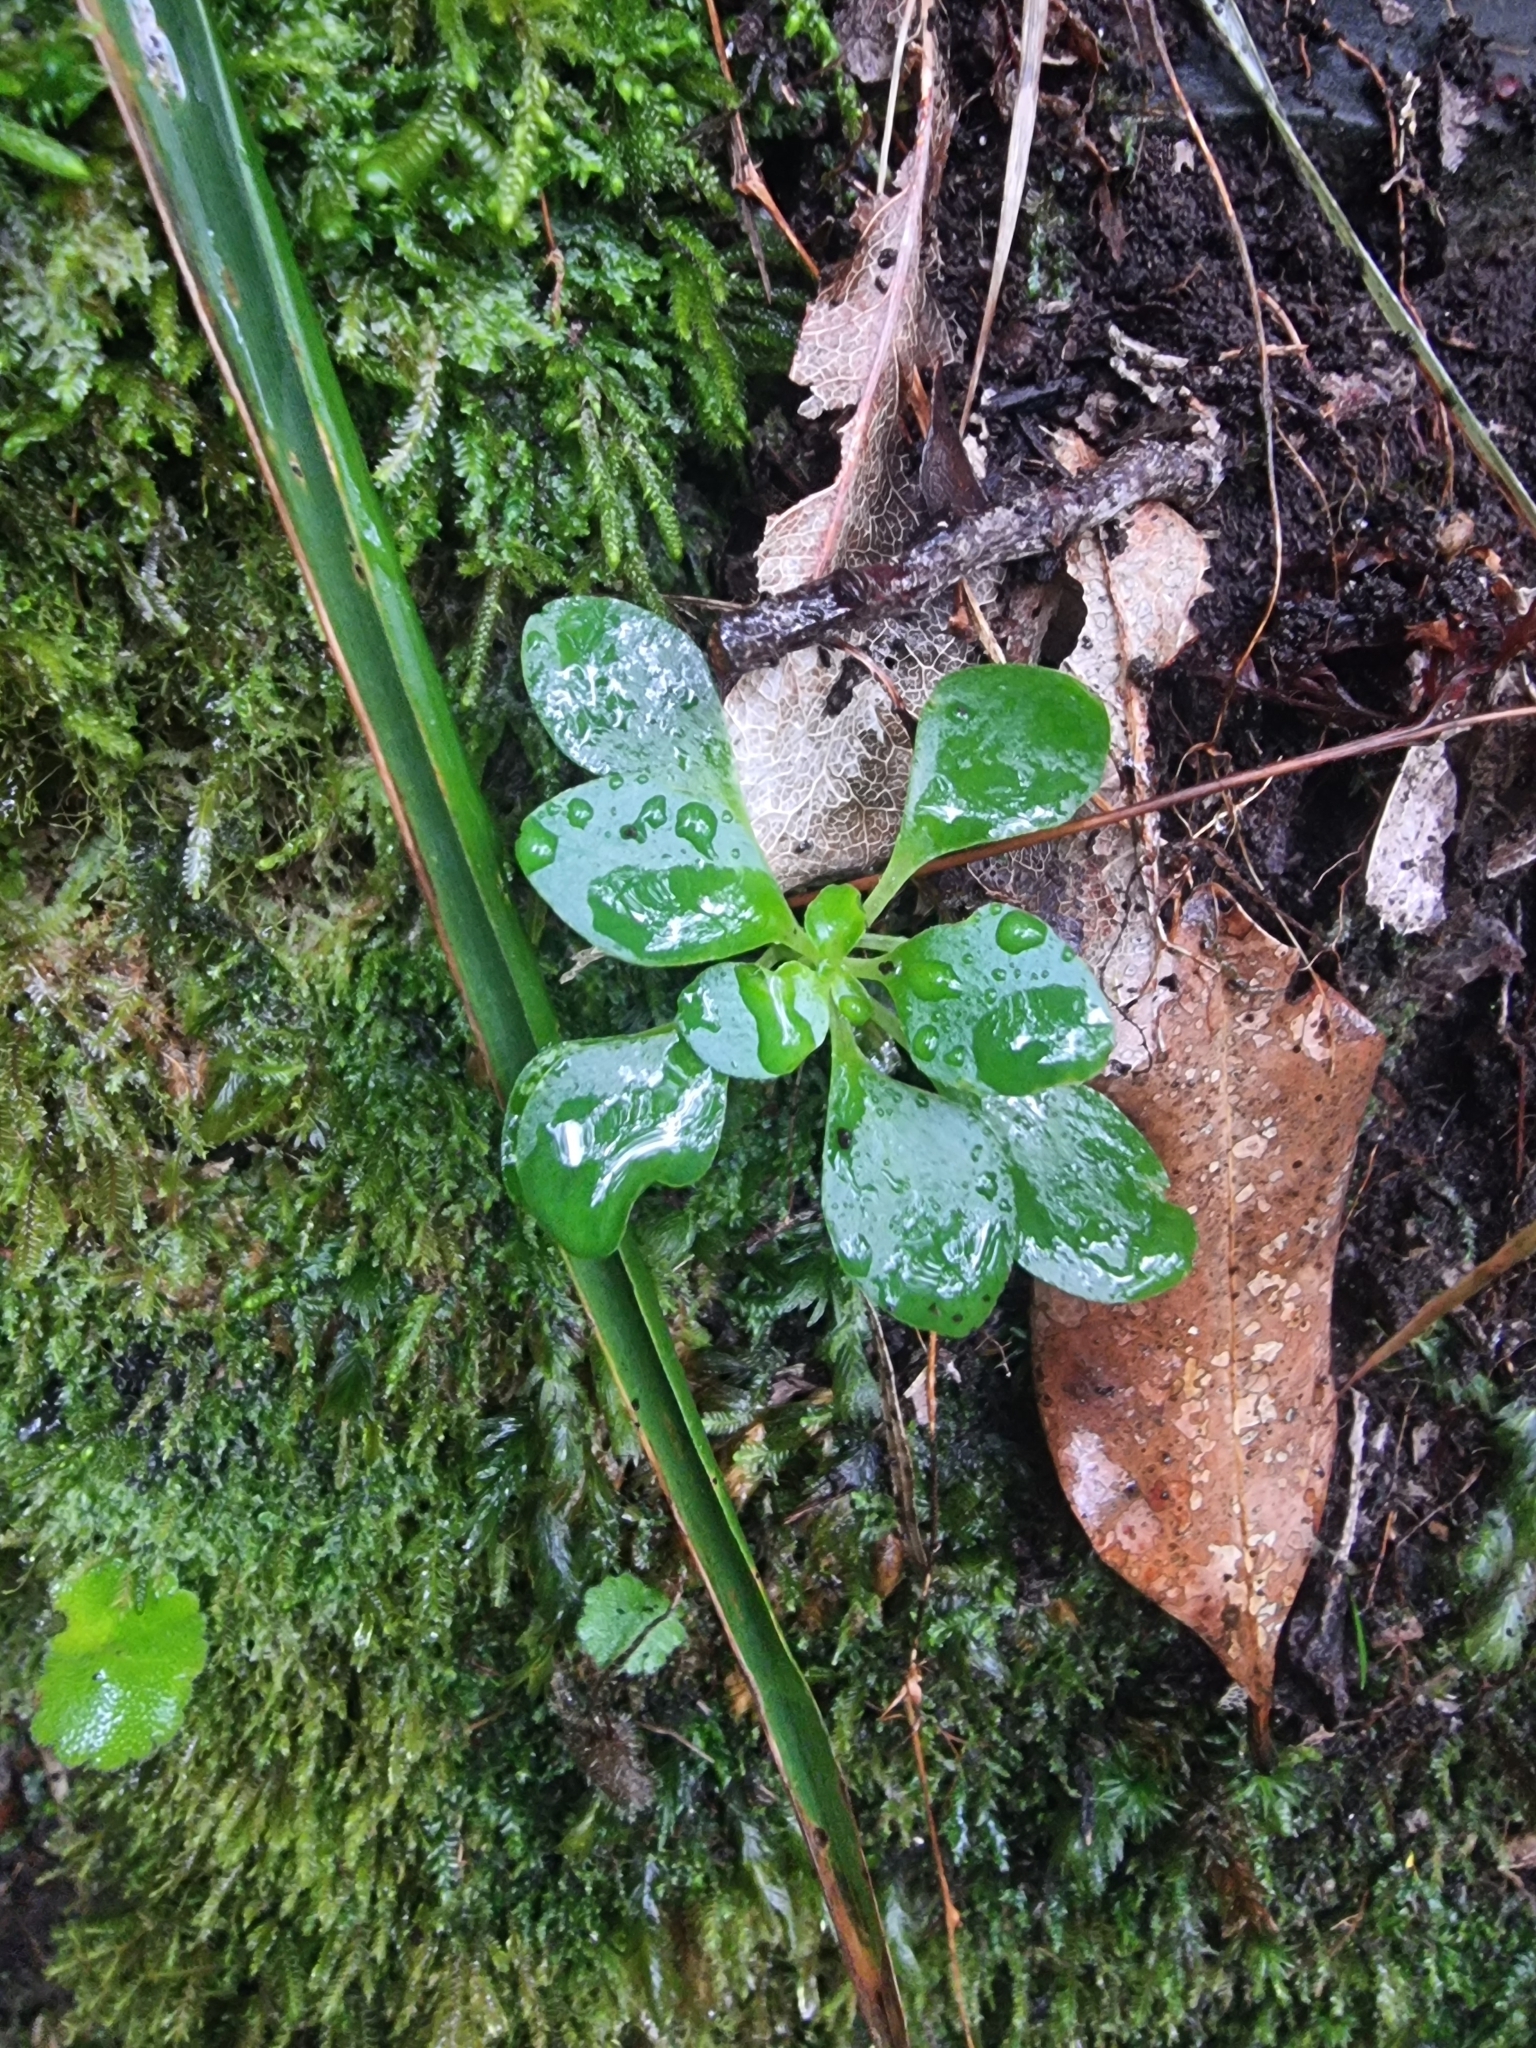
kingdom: Plantae
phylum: Tracheophyta
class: Magnoliopsida
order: Saxifragales
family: Crassulaceae
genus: Aichryson
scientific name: Aichryson divaricatum
